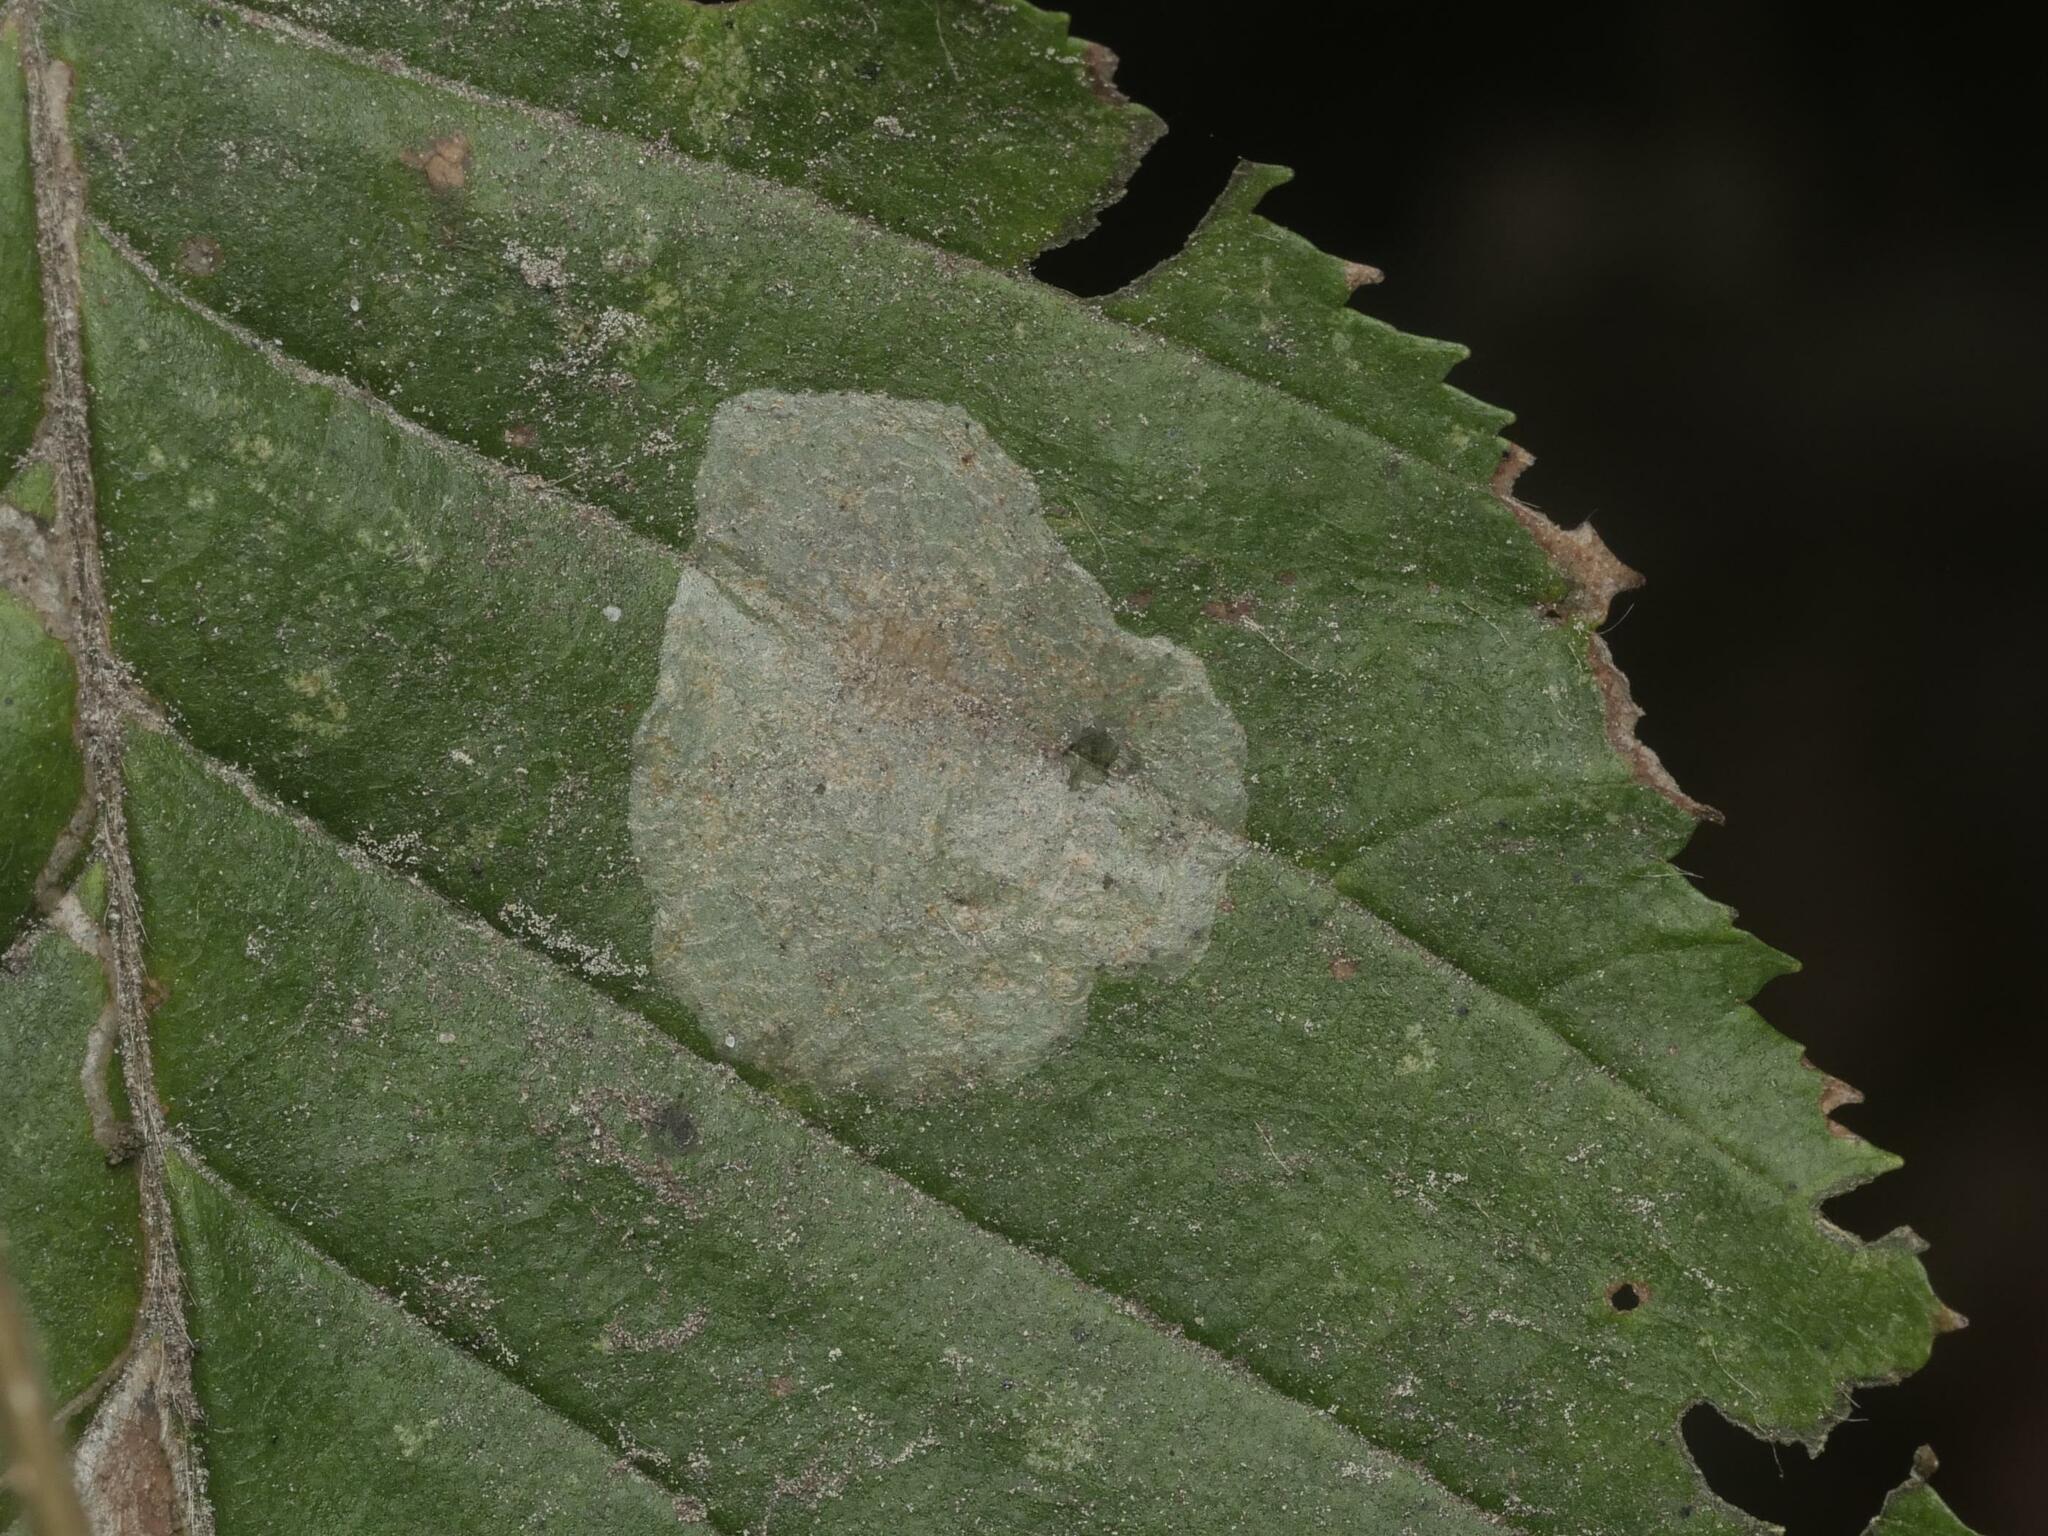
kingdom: Animalia
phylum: Arthropoda
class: Insecta
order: Lepidoptera
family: Gracillariidae
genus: Phyllonorycter
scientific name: Phyllonorycter esperella
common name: Dark hornbeam midget
